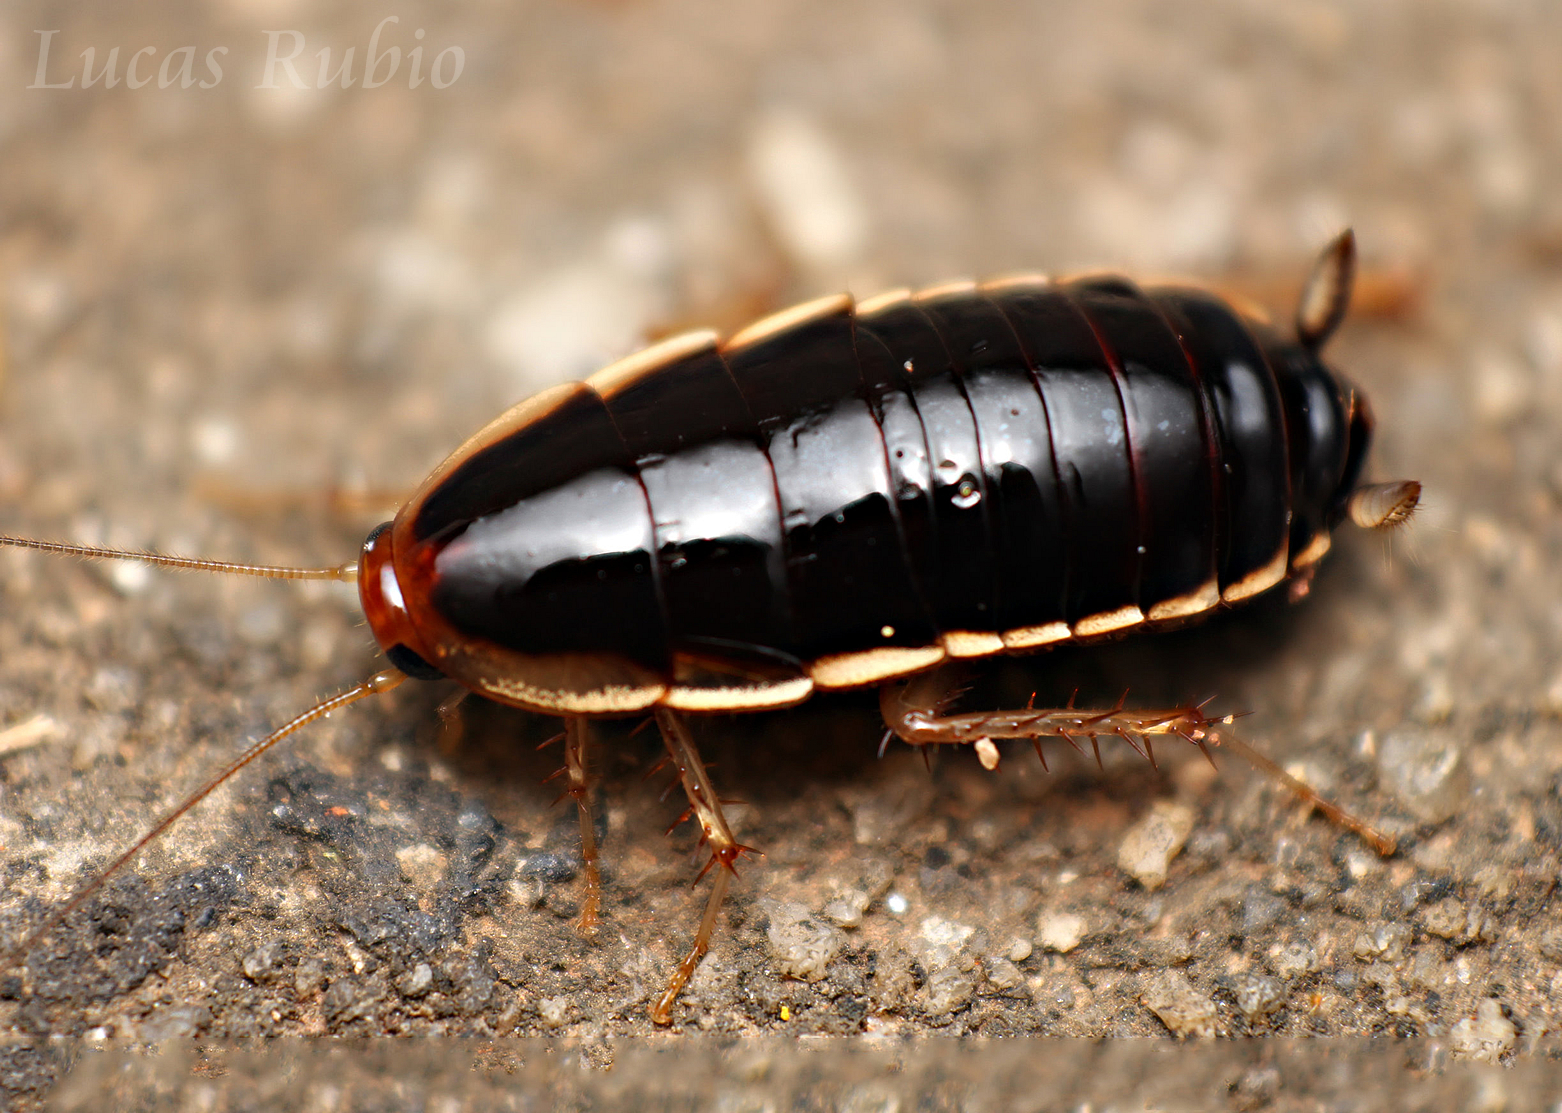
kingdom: Animalia
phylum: Arthropoda
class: Insecta
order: Blattodea
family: Ectobiidae
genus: Isoldaia
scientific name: Isoldaia insularis
